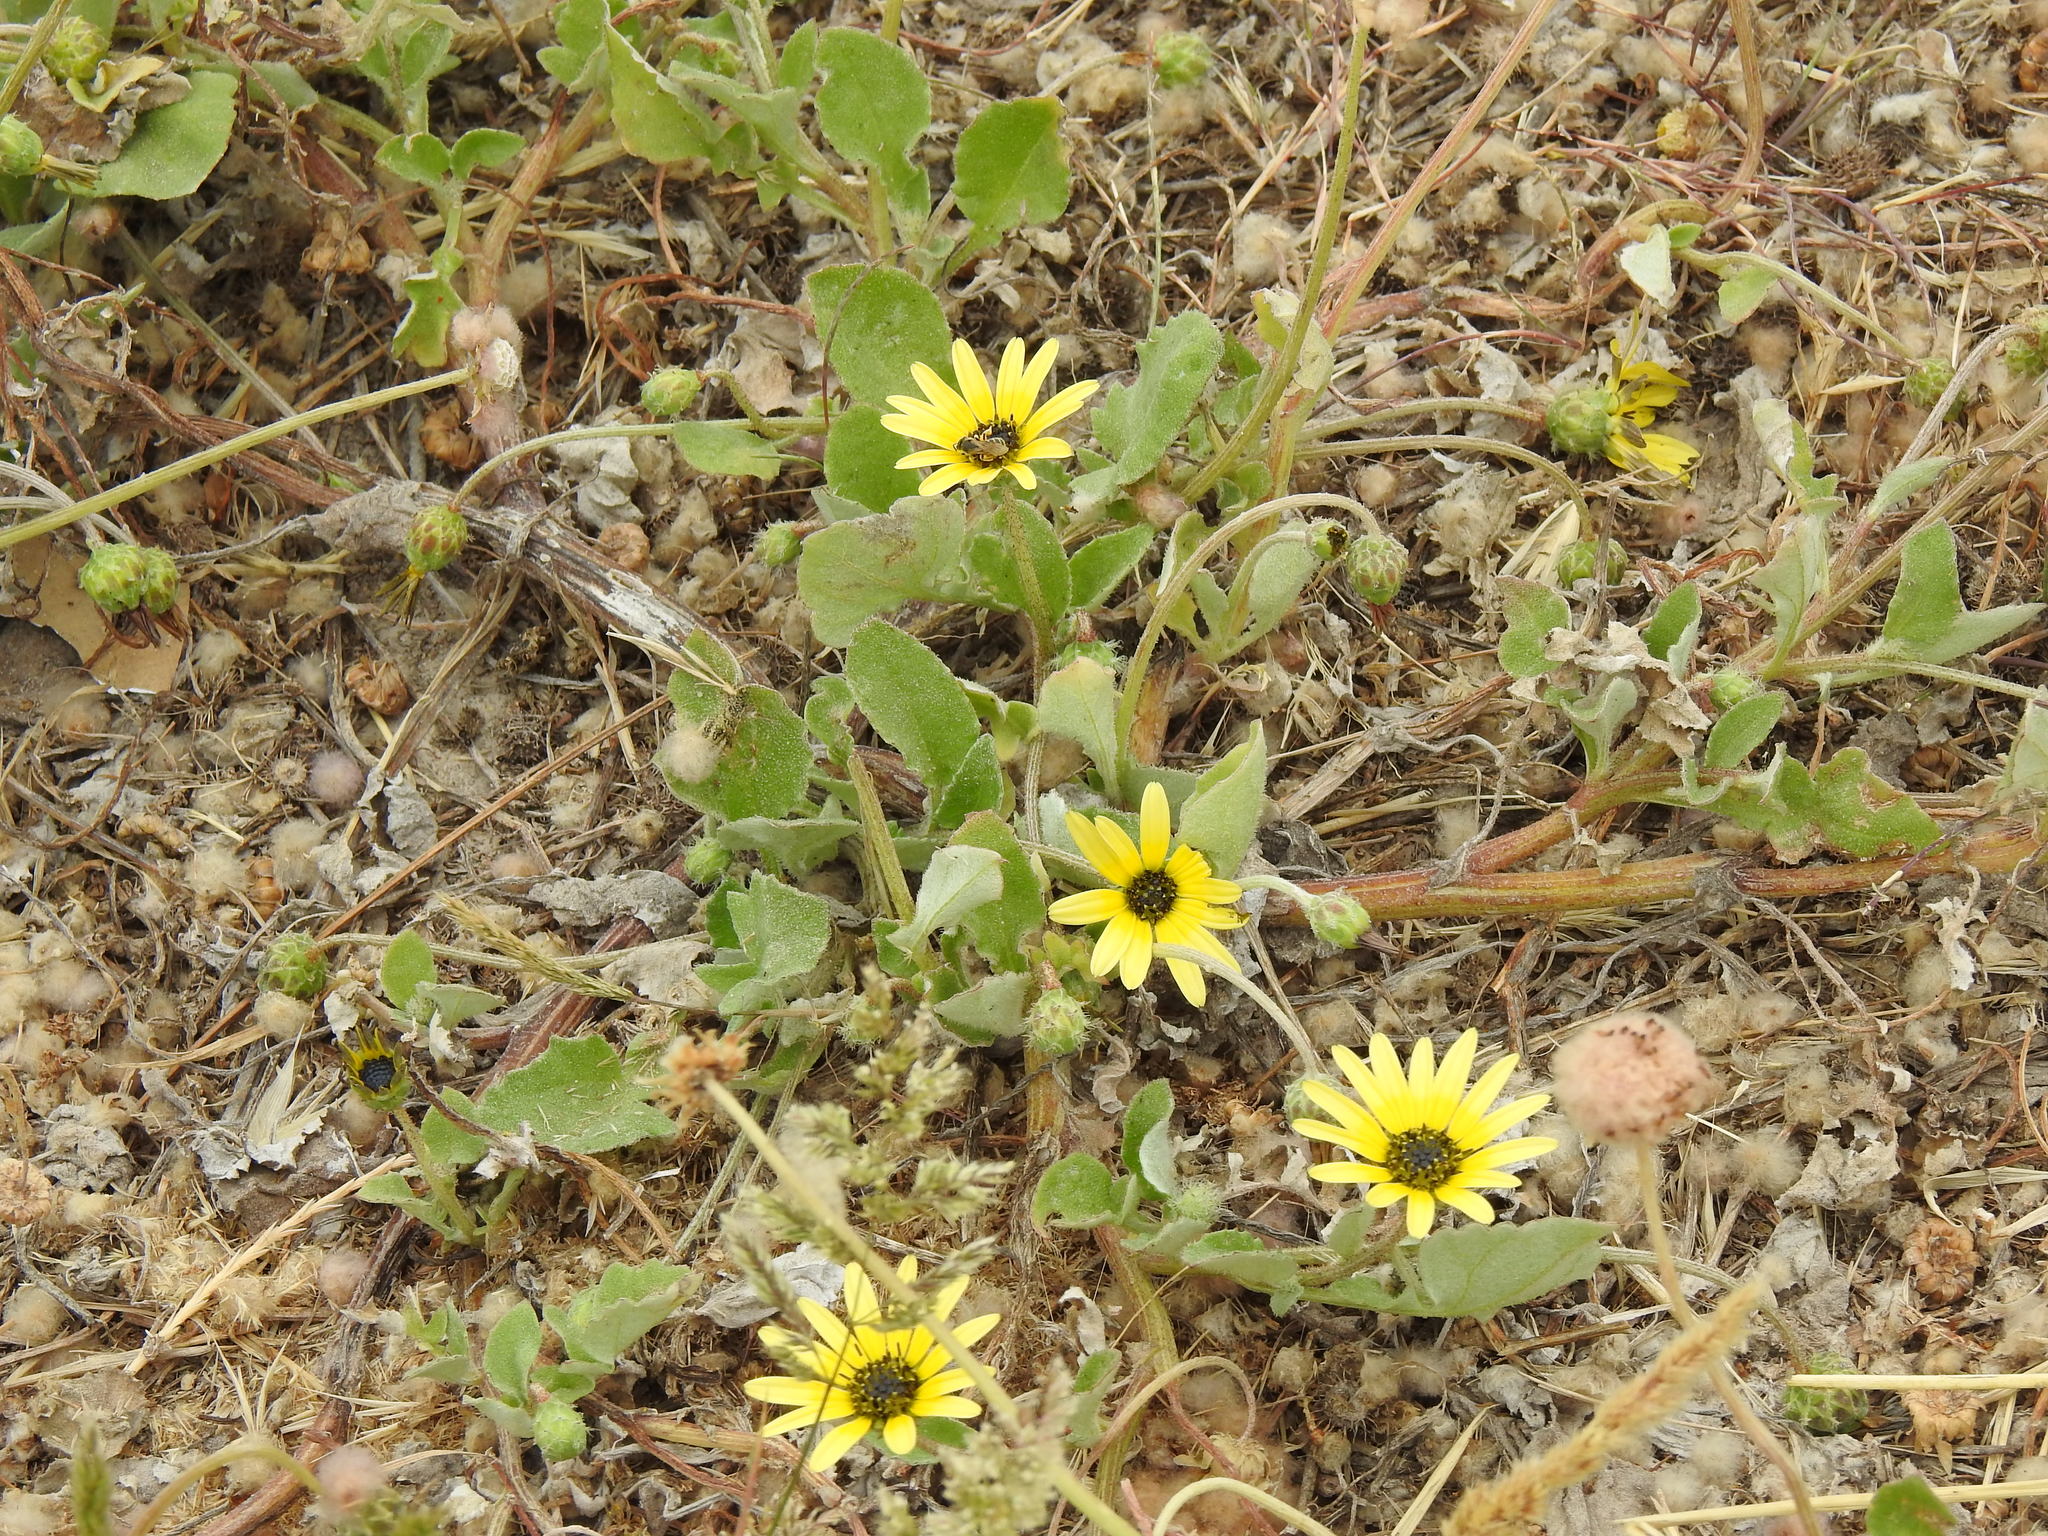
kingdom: Plantae
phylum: Tracheophyta
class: Magnoliopsida
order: Asterales
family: Asteraceae
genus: Arctotheca
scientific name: Arctotheca calendula
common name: Capeweed
